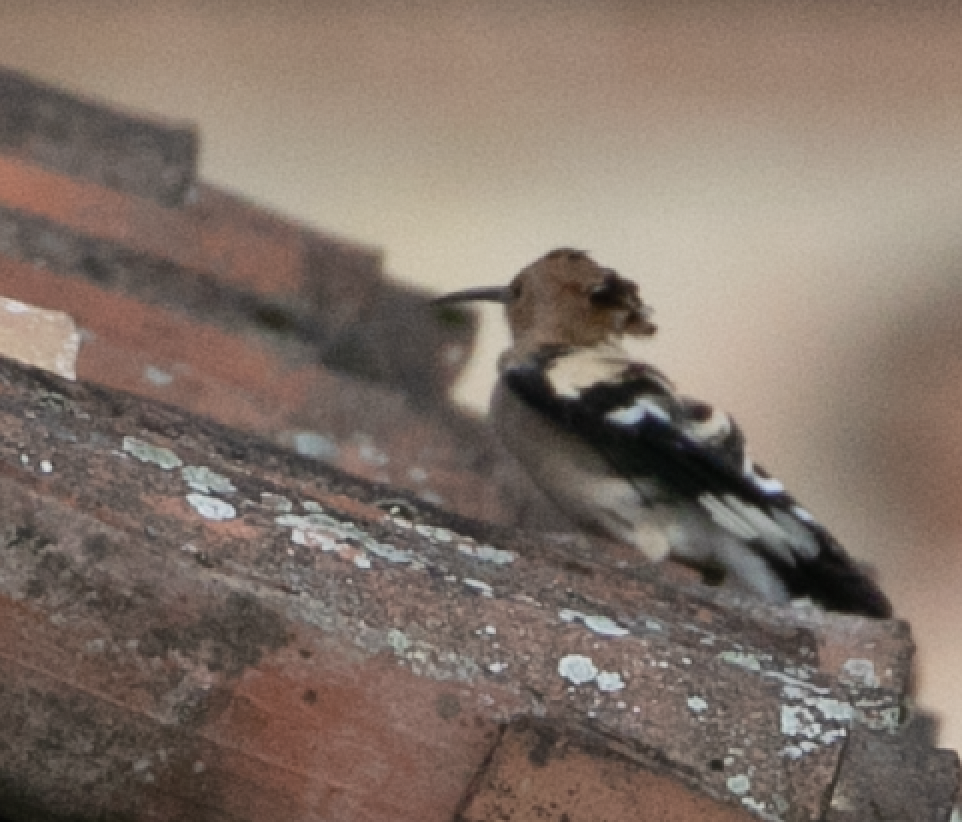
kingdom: Animalia
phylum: Chordata
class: Aves
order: Bucerotiformes
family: Upupidae
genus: Upupa
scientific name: Upupa epops
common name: Eurasian hoopoe
